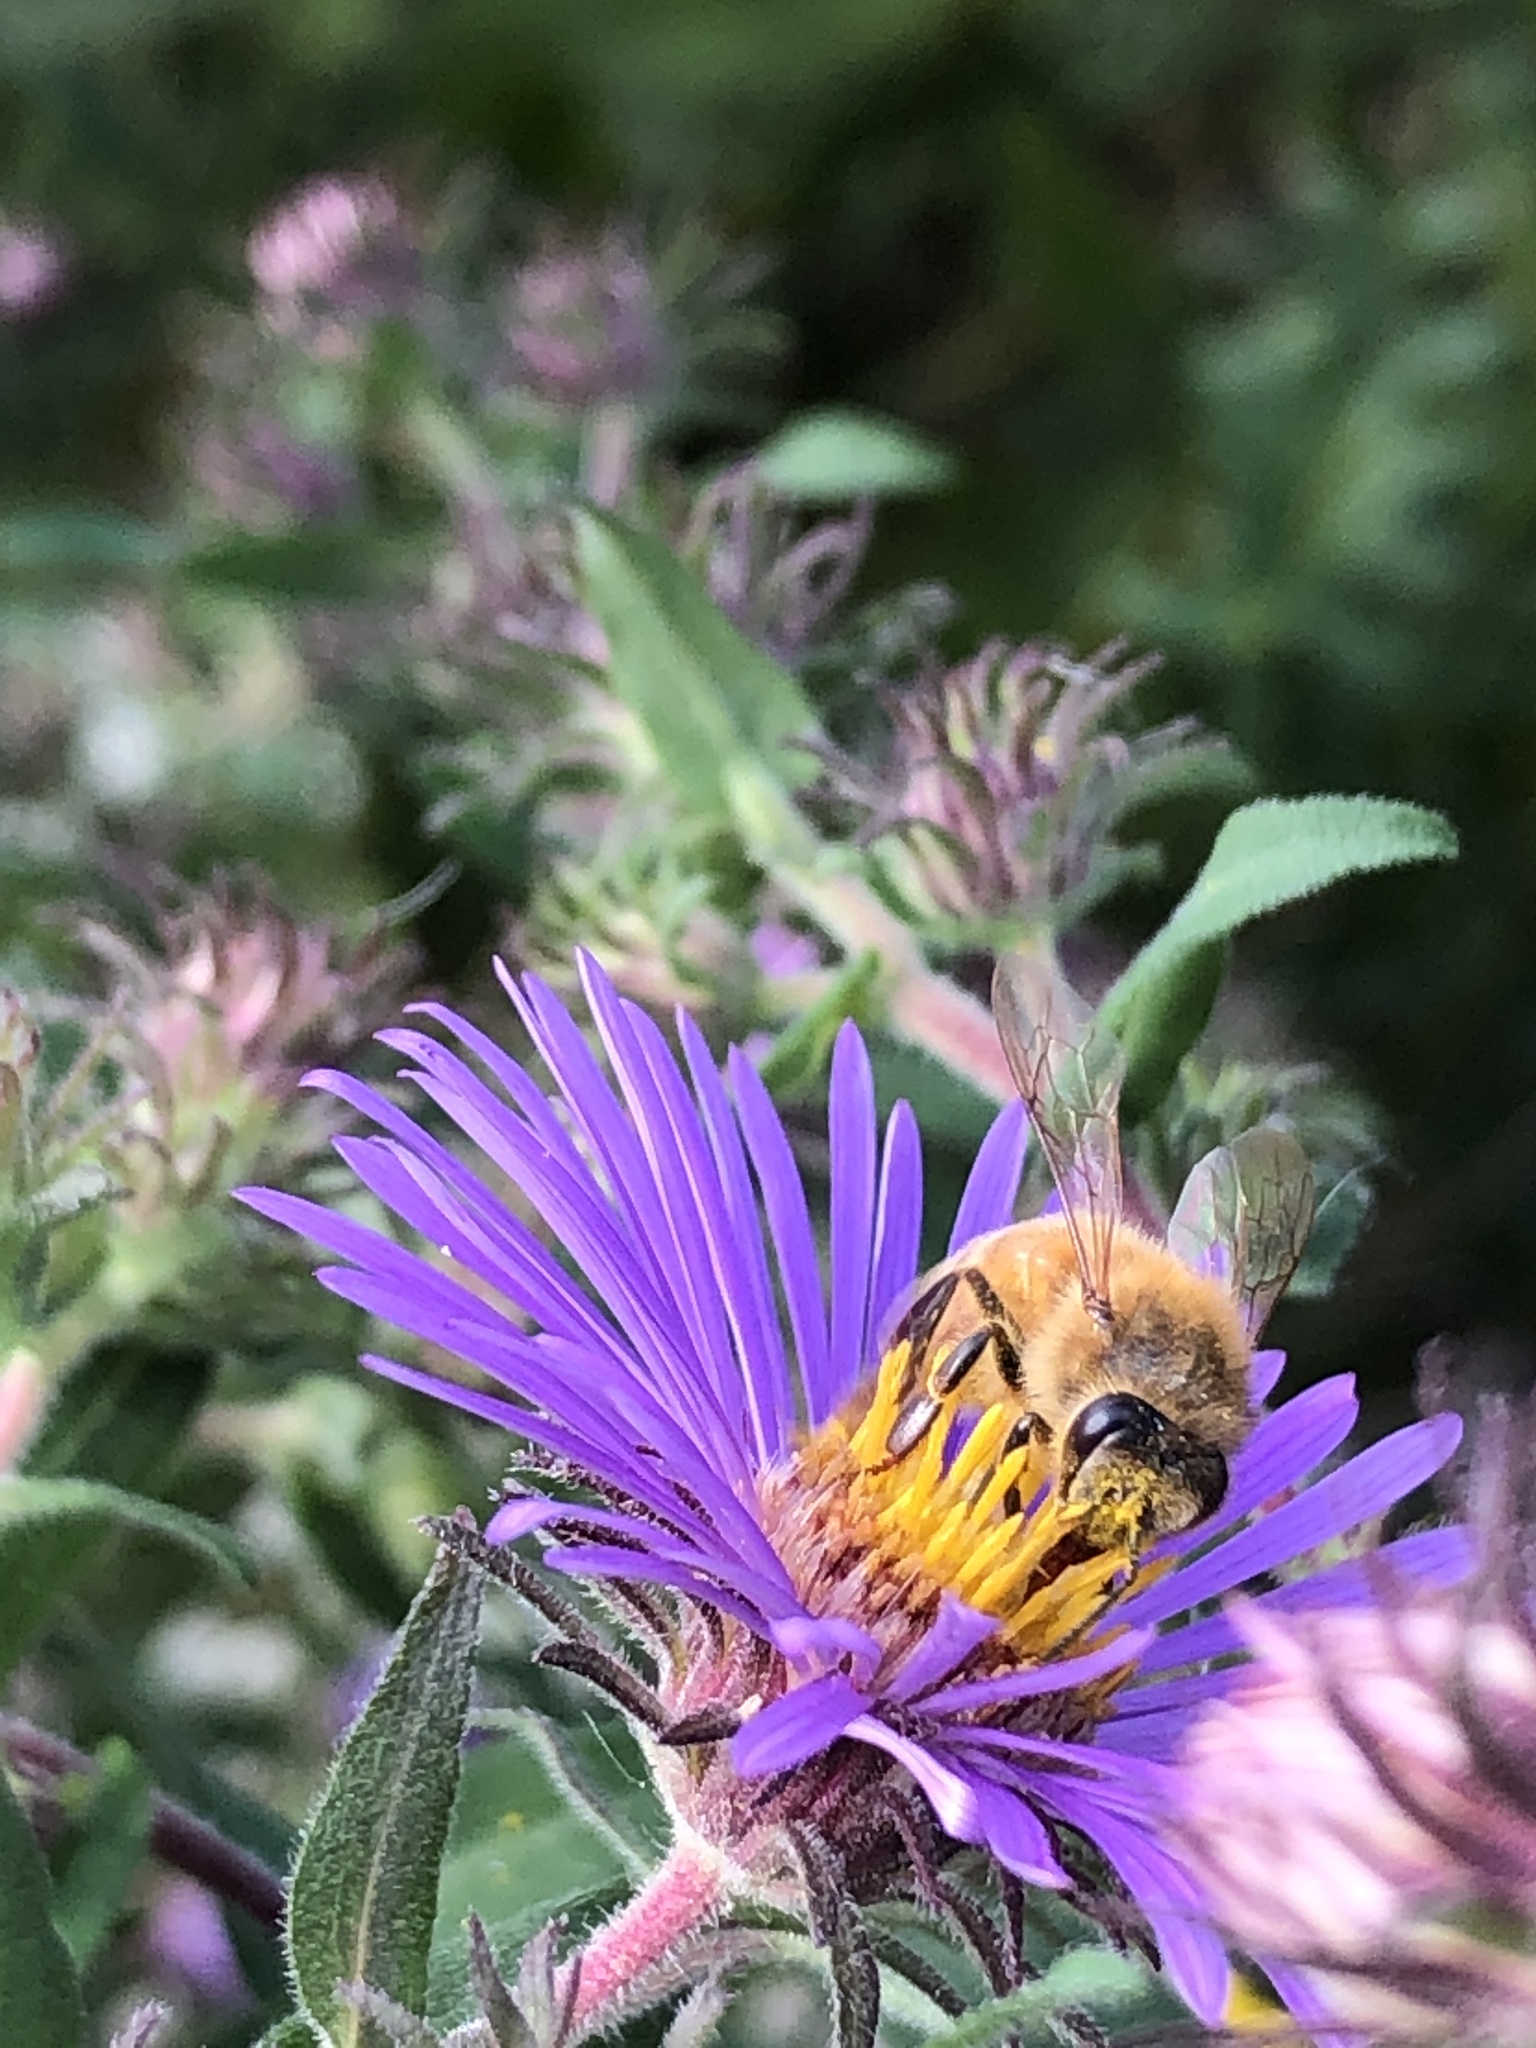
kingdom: Animalia
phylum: Arthropoda
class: Insecta
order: Hymenoptera
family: Apidae
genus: Apis
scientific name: Apis mellifera
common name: Honey bee
